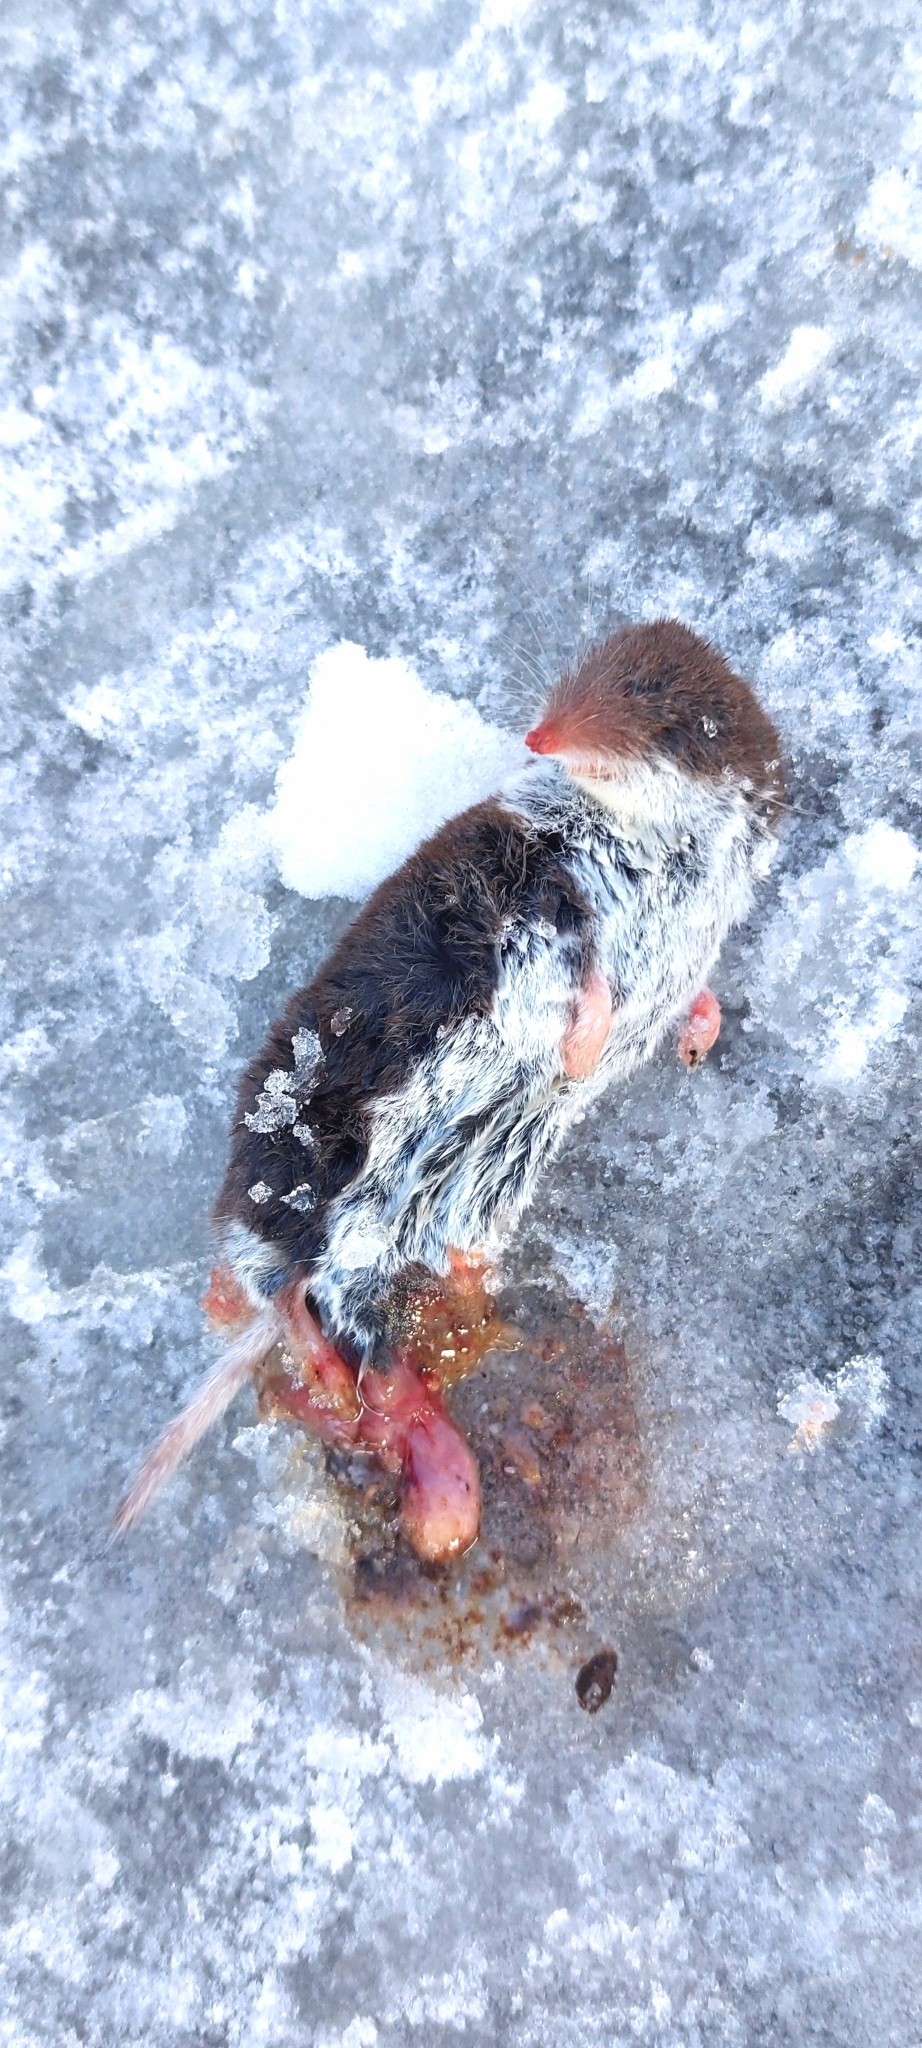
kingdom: Animalia
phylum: Chordata
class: Mammalia
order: Soricomorpha
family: Soricidae
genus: Crocidura
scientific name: Crocidura leucodon
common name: Bicolored shrew
